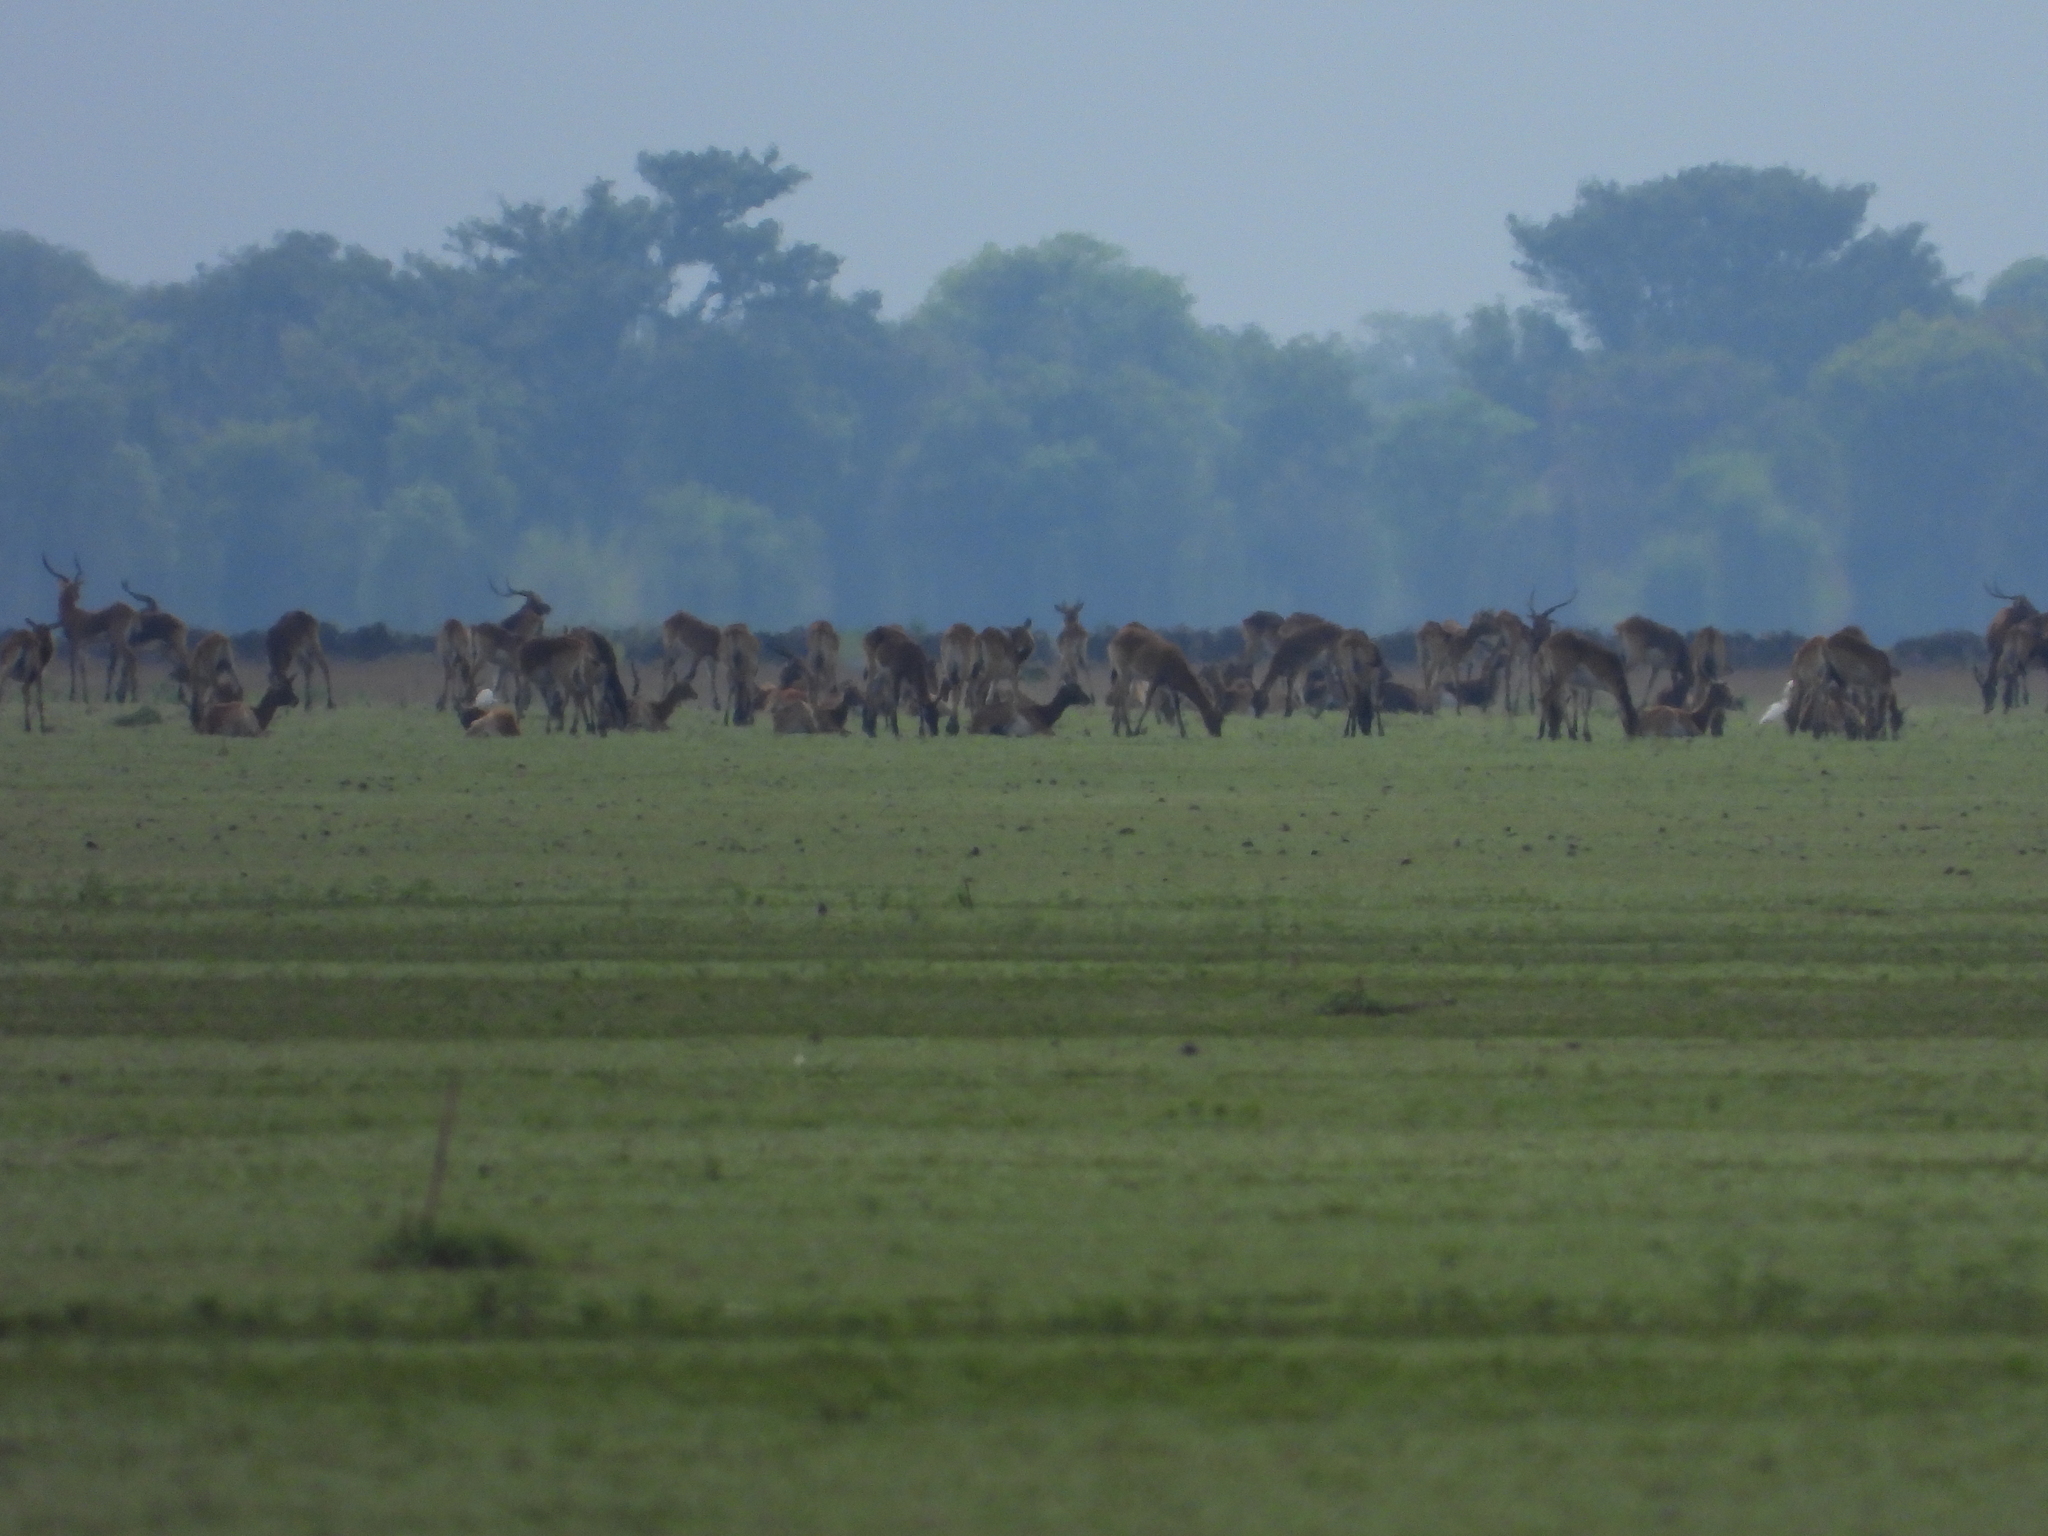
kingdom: Animalia
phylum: Chordata
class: Mammalia
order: Artiodactyla
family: Bovidae
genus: Kobus
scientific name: Kobus leche
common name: Lechwe
